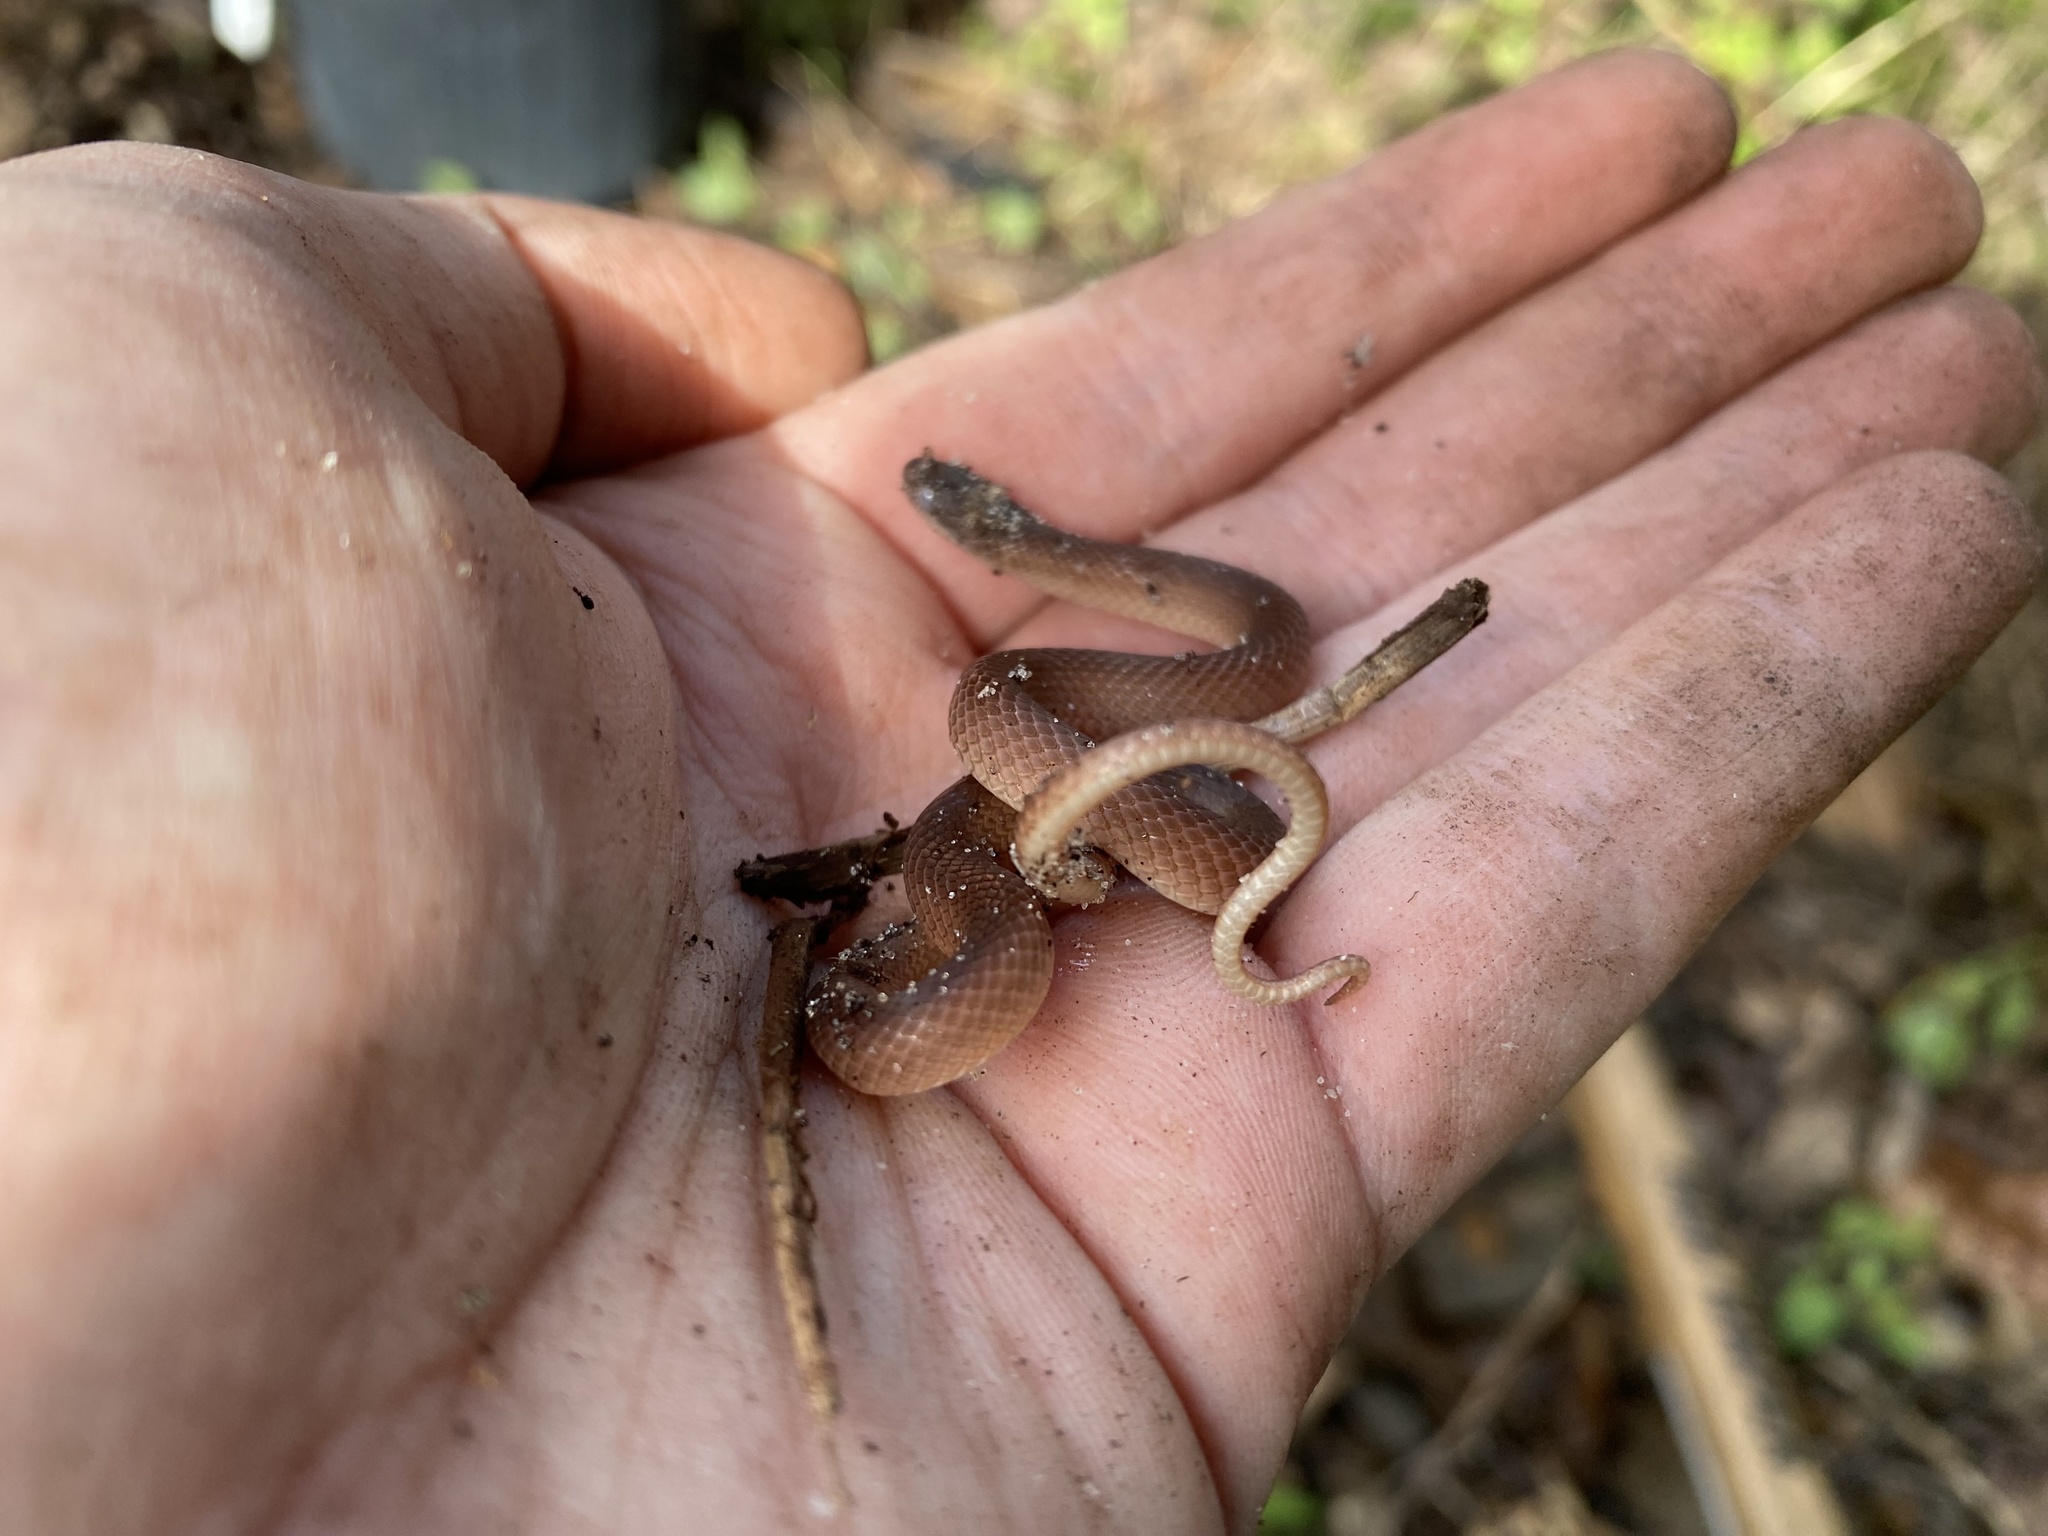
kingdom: Animalia
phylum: Chordata
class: Squamata
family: Colubridae
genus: Rhadinaea
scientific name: Rhadinaea flavilata
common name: Pine woods littersnake
